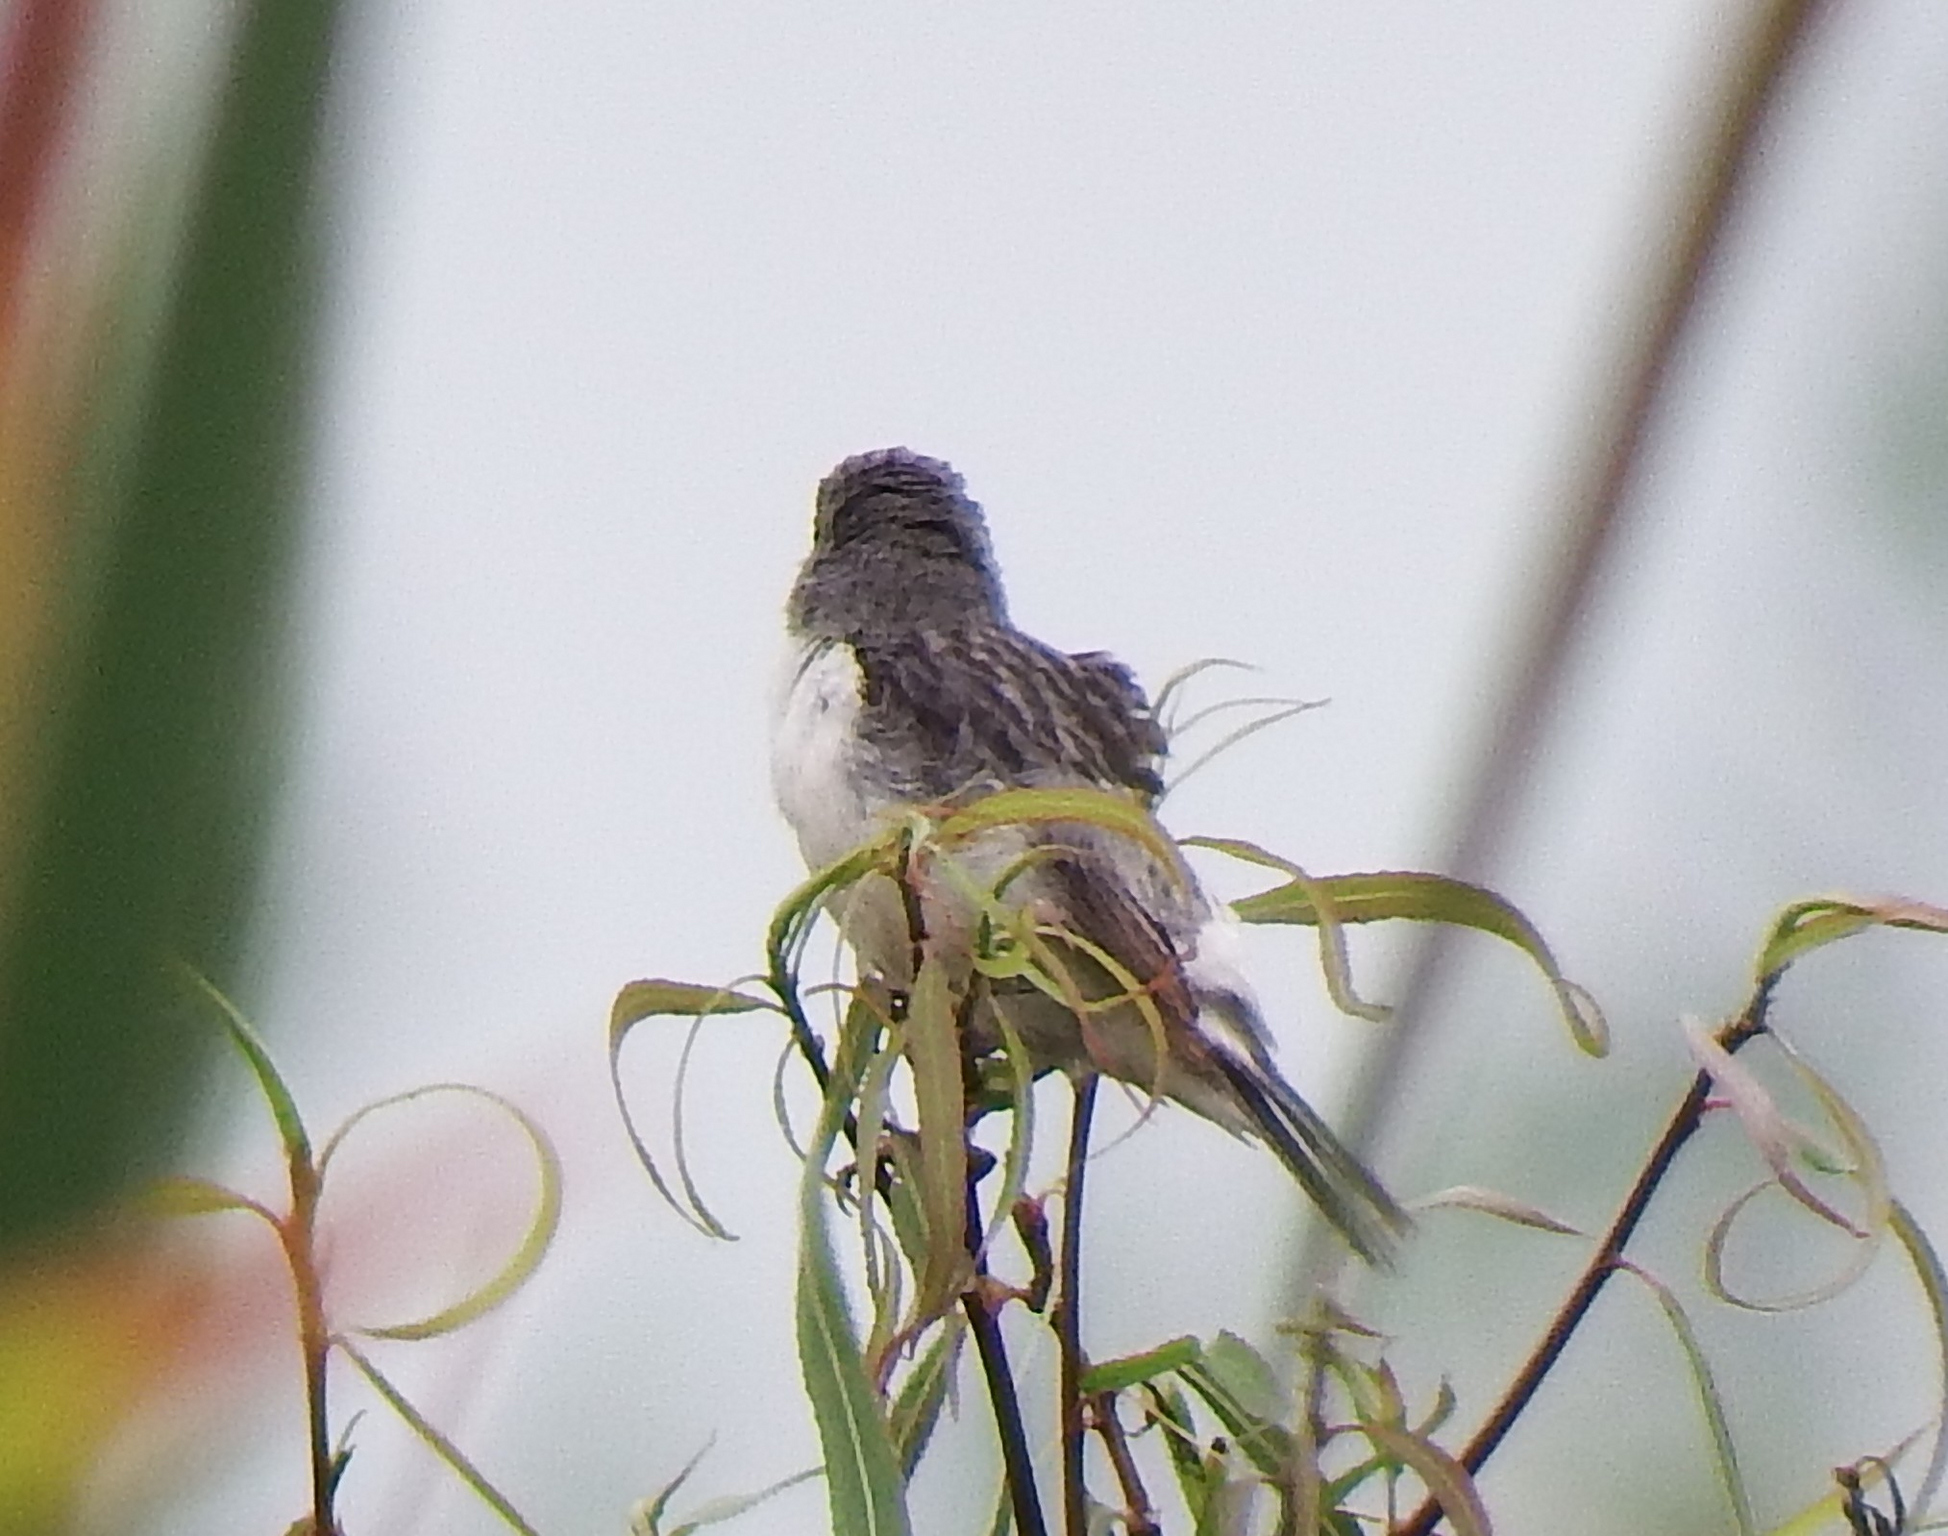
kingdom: Animalia
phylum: Chordata
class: Aves
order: Passeriformes
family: Thraupidae
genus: Sporophila
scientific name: Sporophila telasco
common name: Chestnut-throated seedeater
